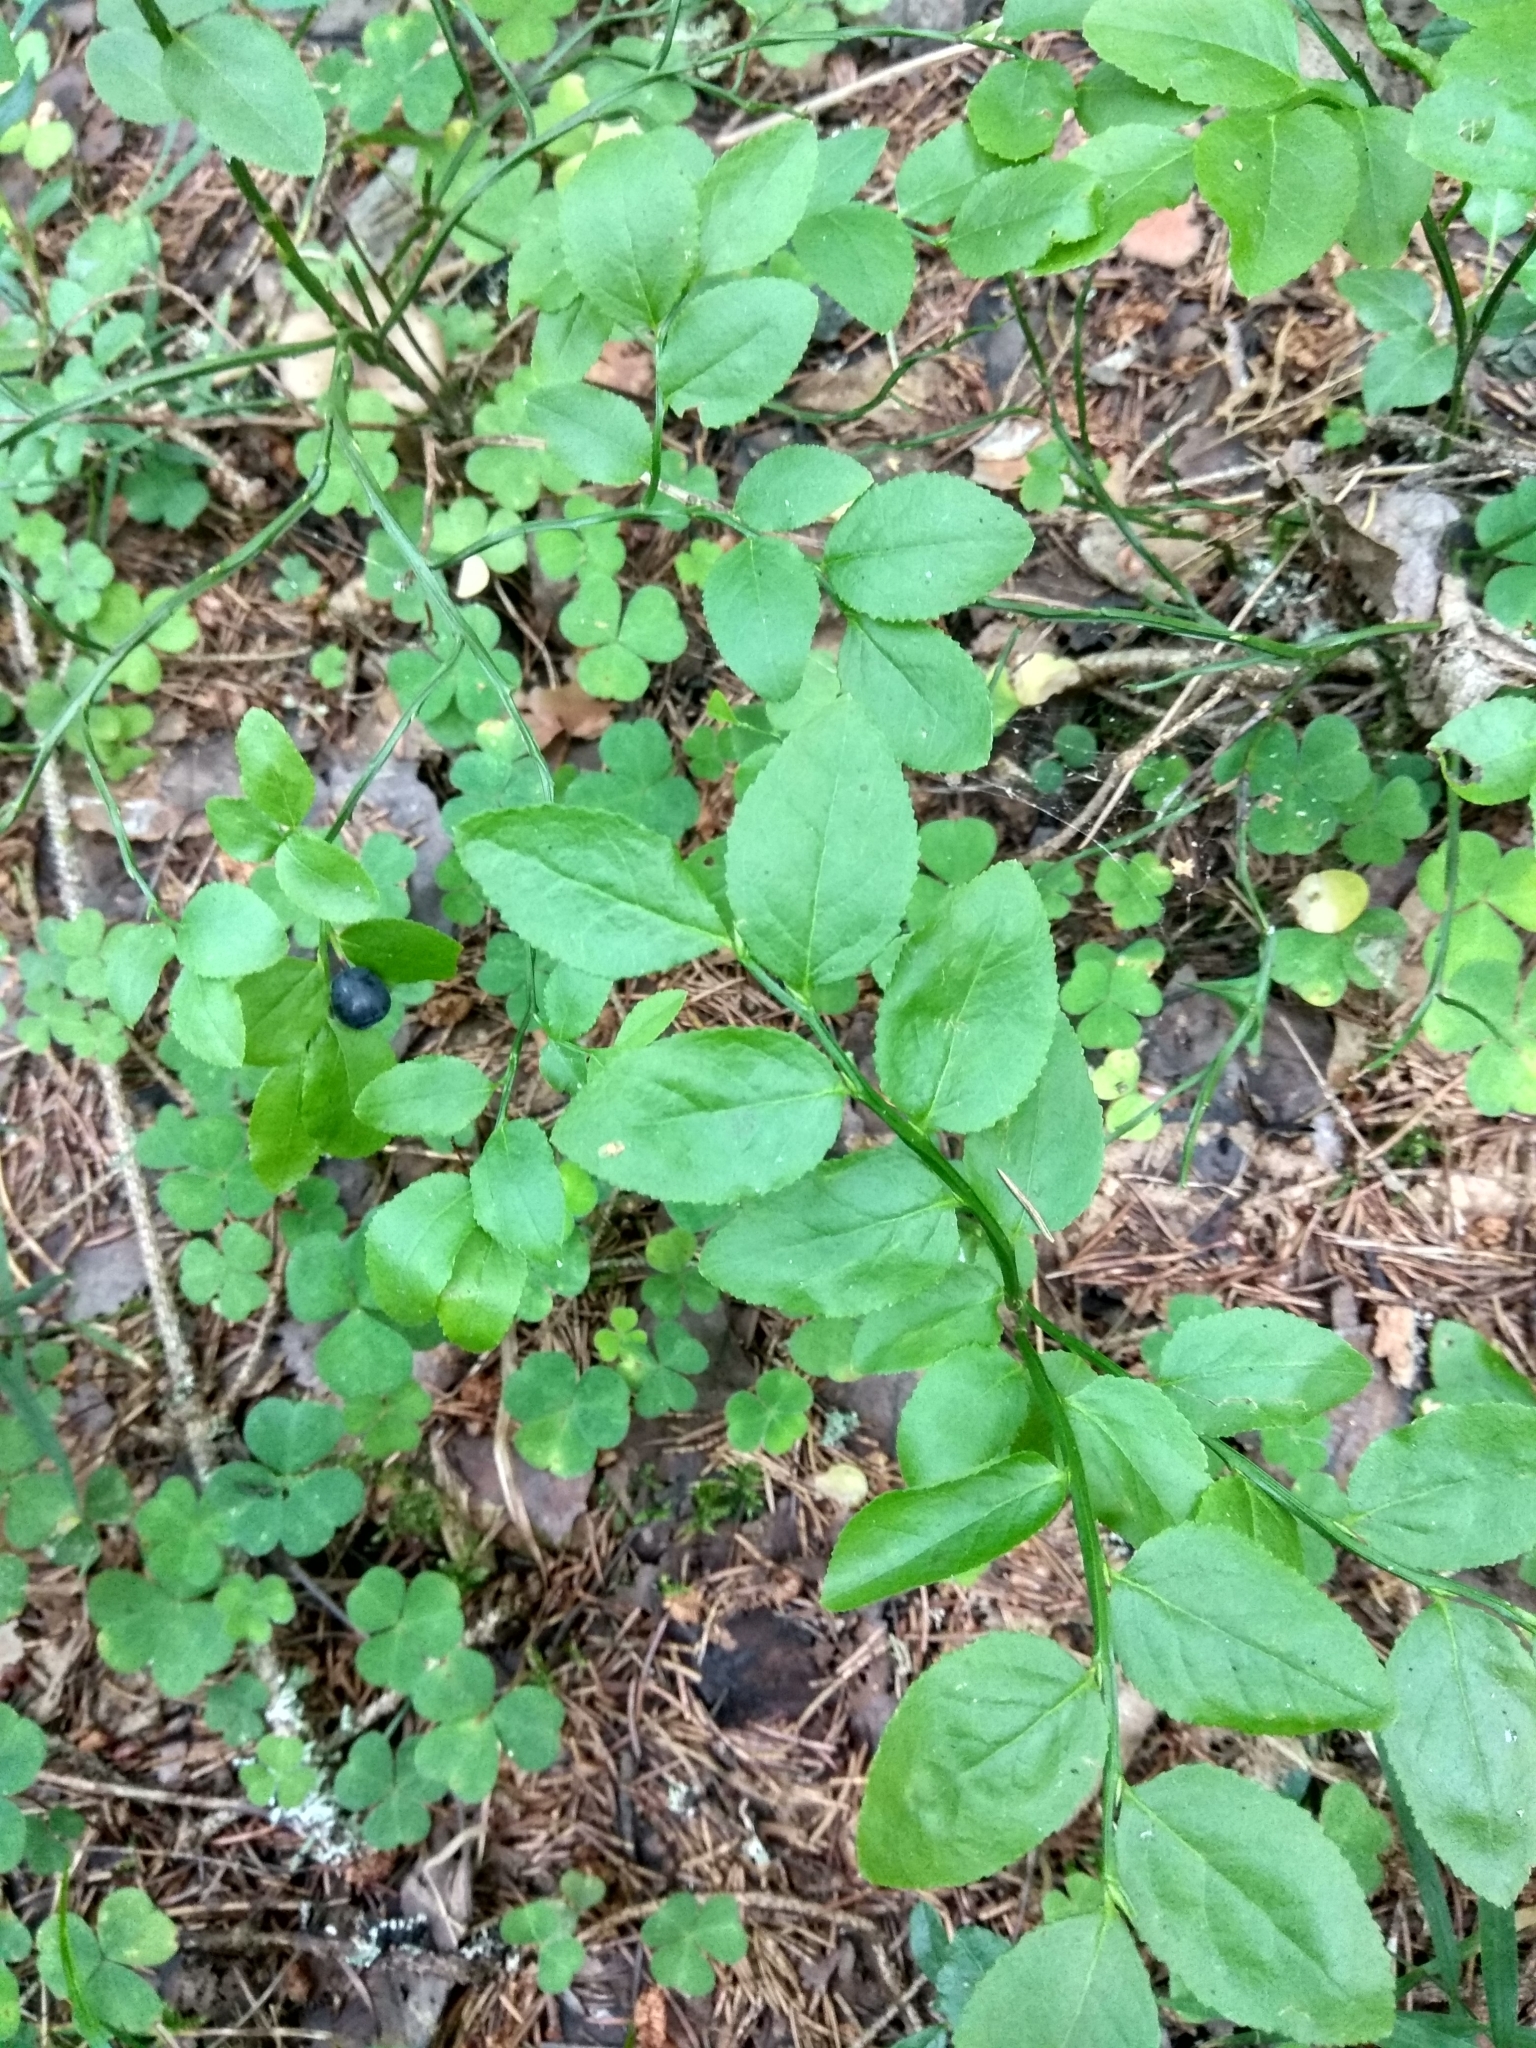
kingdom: Plantae
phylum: Tracheophyta
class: Magnoliopsida
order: Ericales
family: Ericaceae
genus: Vaccinium
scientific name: Vaccinium myrtillus
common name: Bilberry
